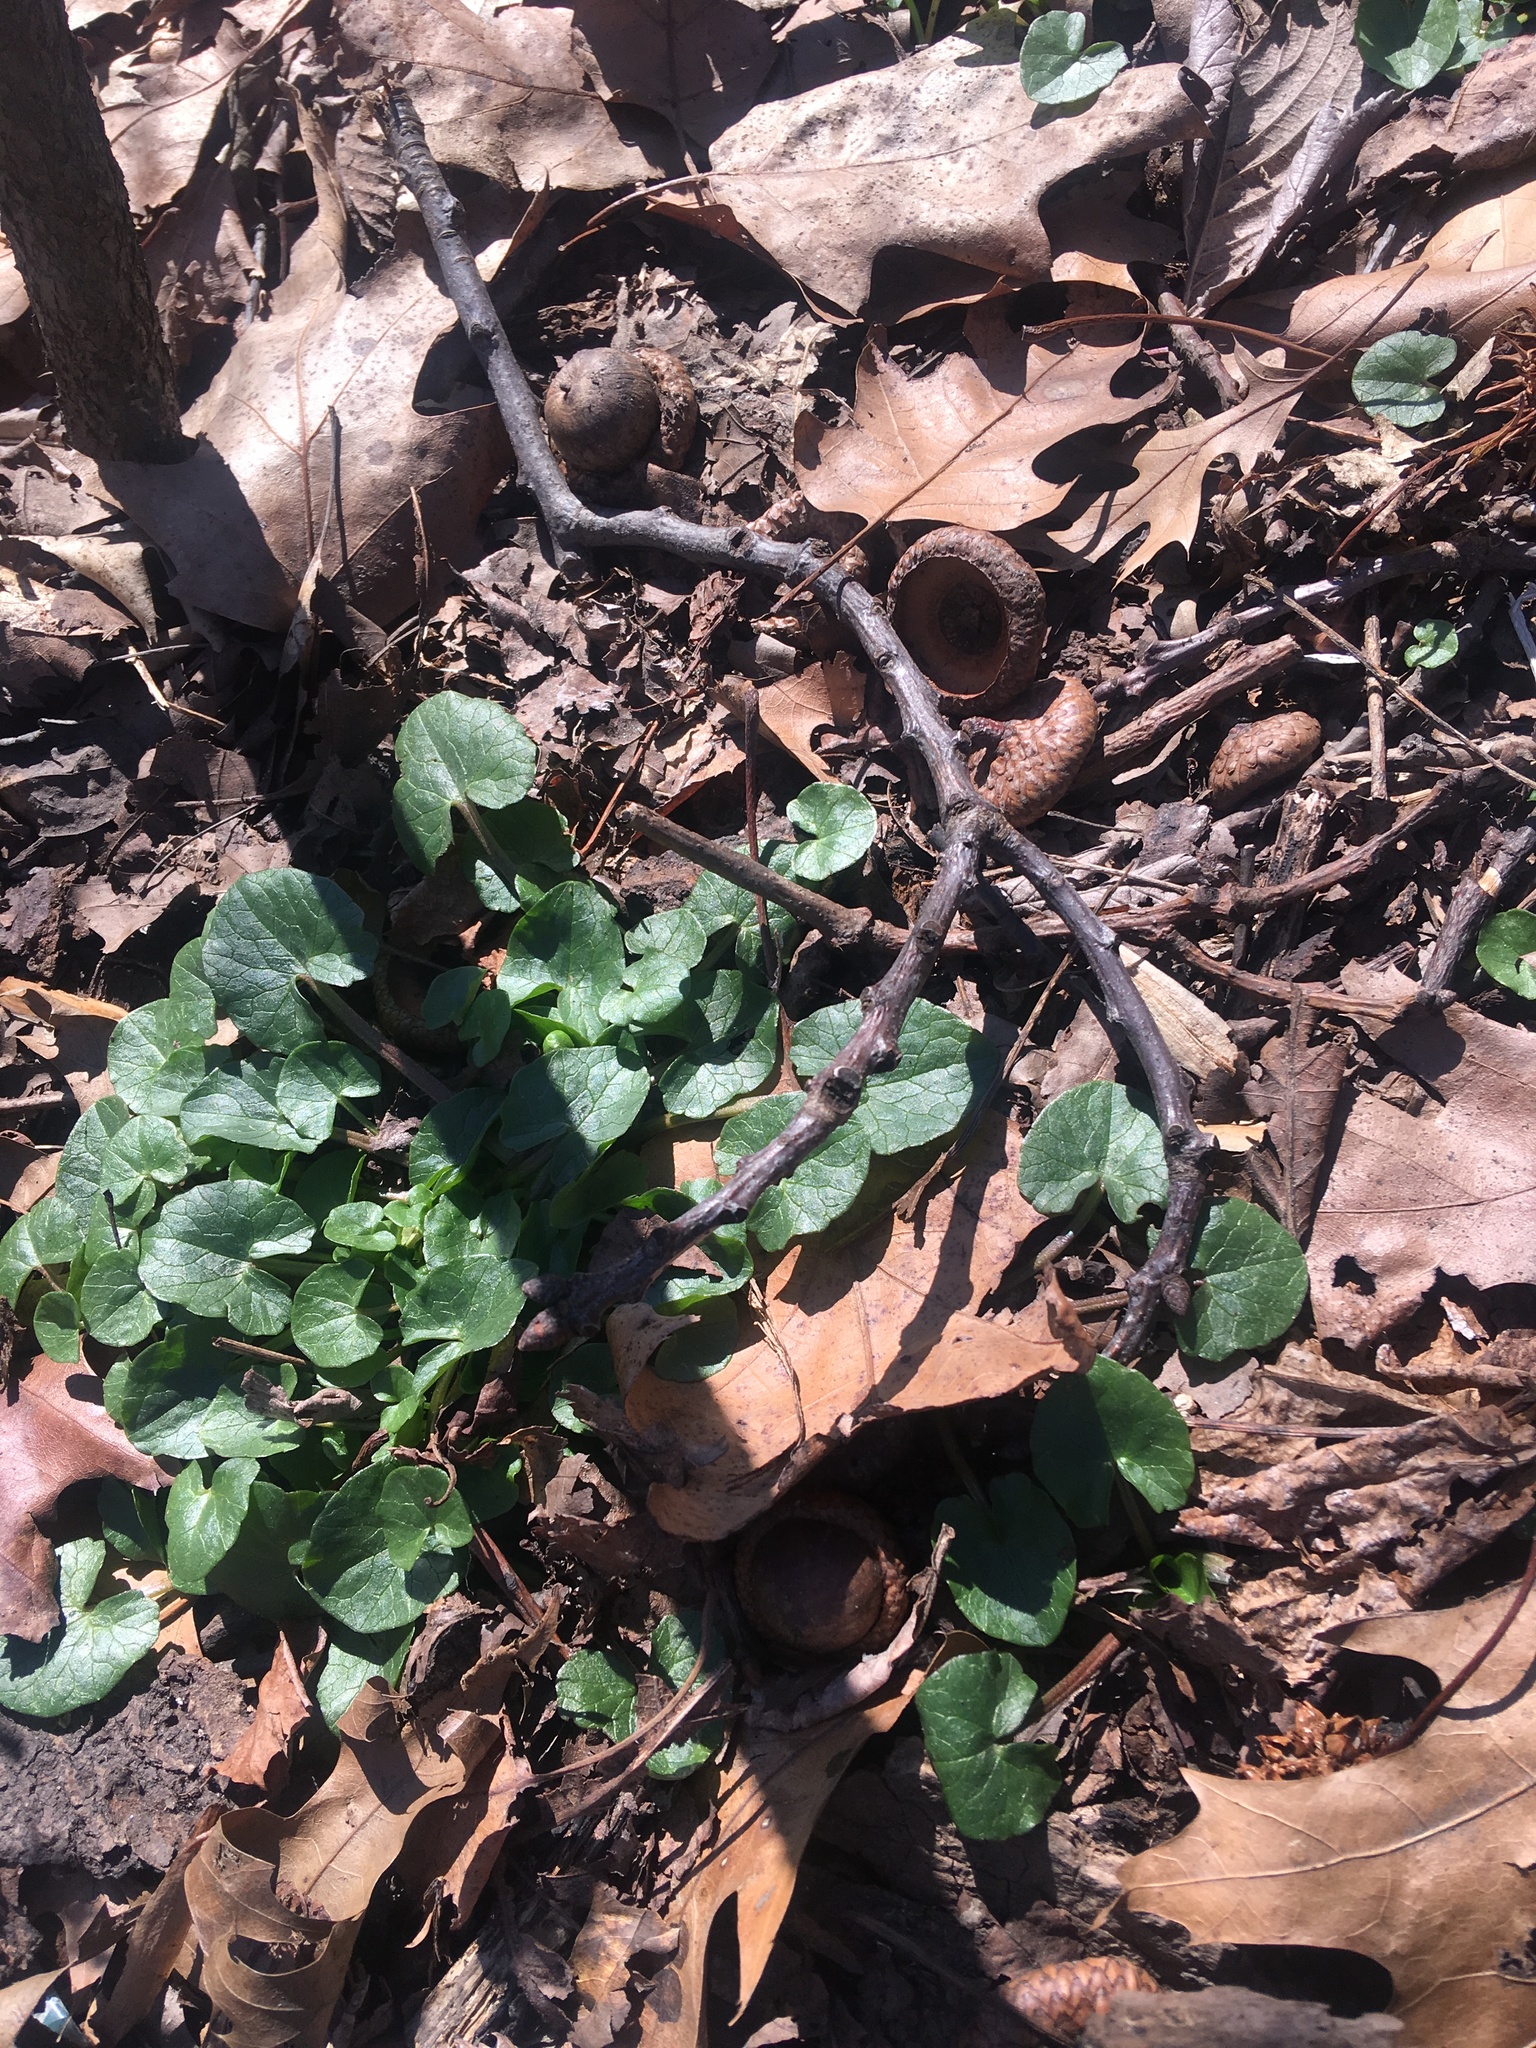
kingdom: Plantae
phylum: Tracheophyta
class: Magnoliopsida
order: Ranunculales
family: Ranunculaceae
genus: Ficaria
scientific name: Ficaria verna
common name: Lesser celandine
